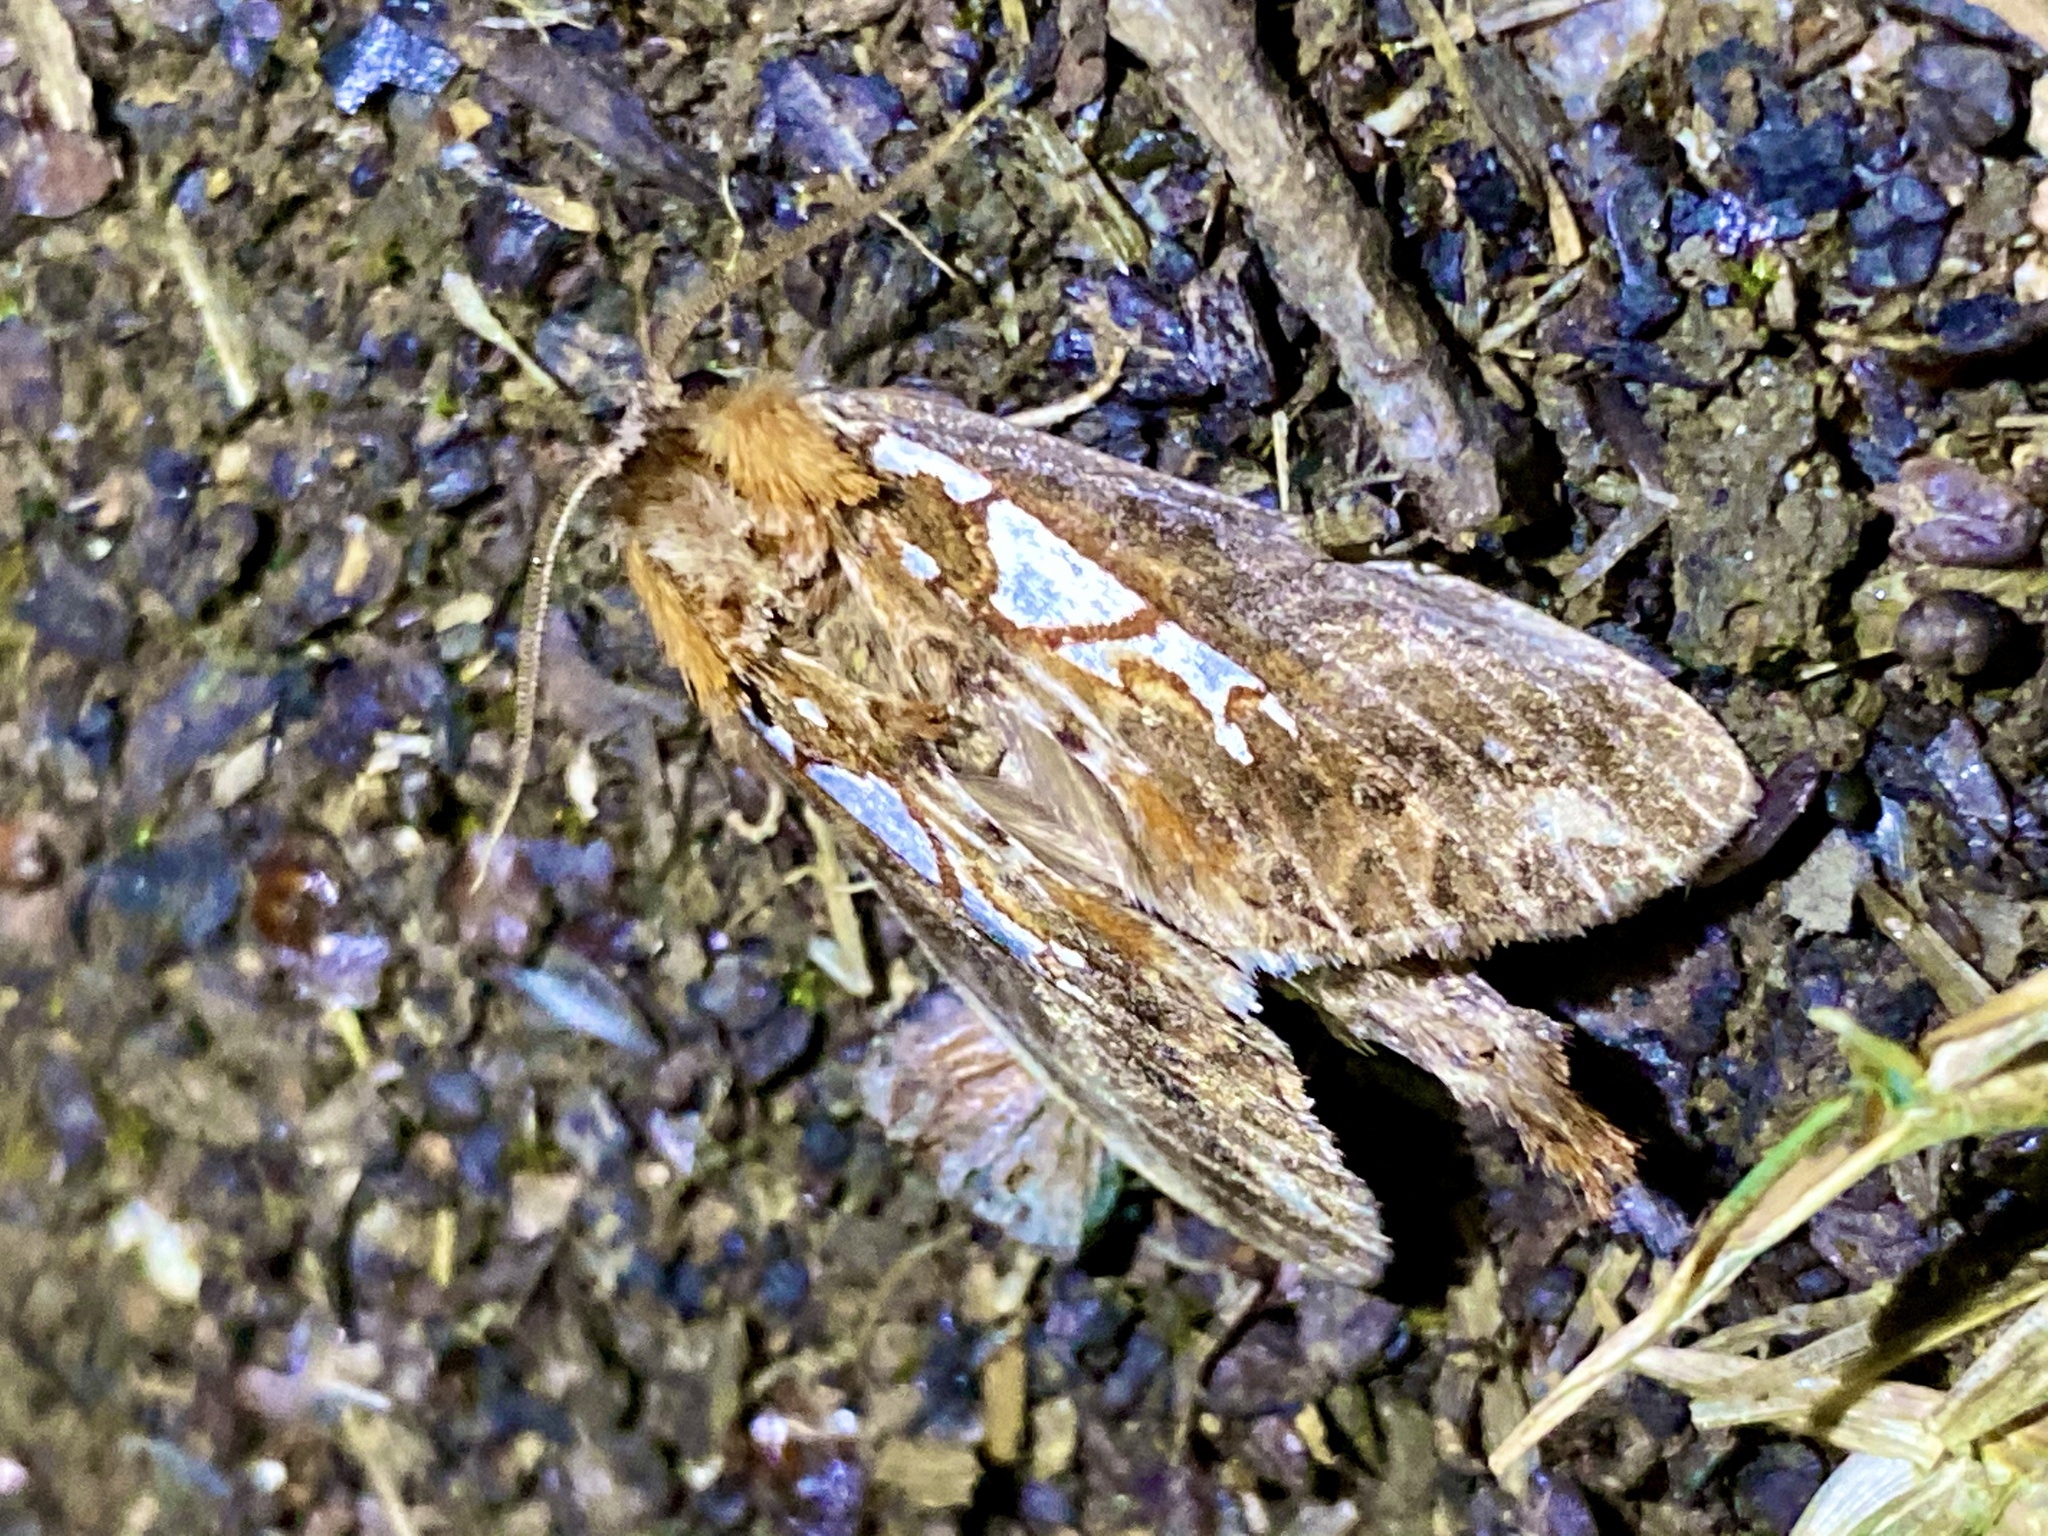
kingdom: Animalia
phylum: Arthropoda
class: Insecta
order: Lepidoptera
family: Notodontidae
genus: Spatalia
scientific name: Spatalia doerriesi
